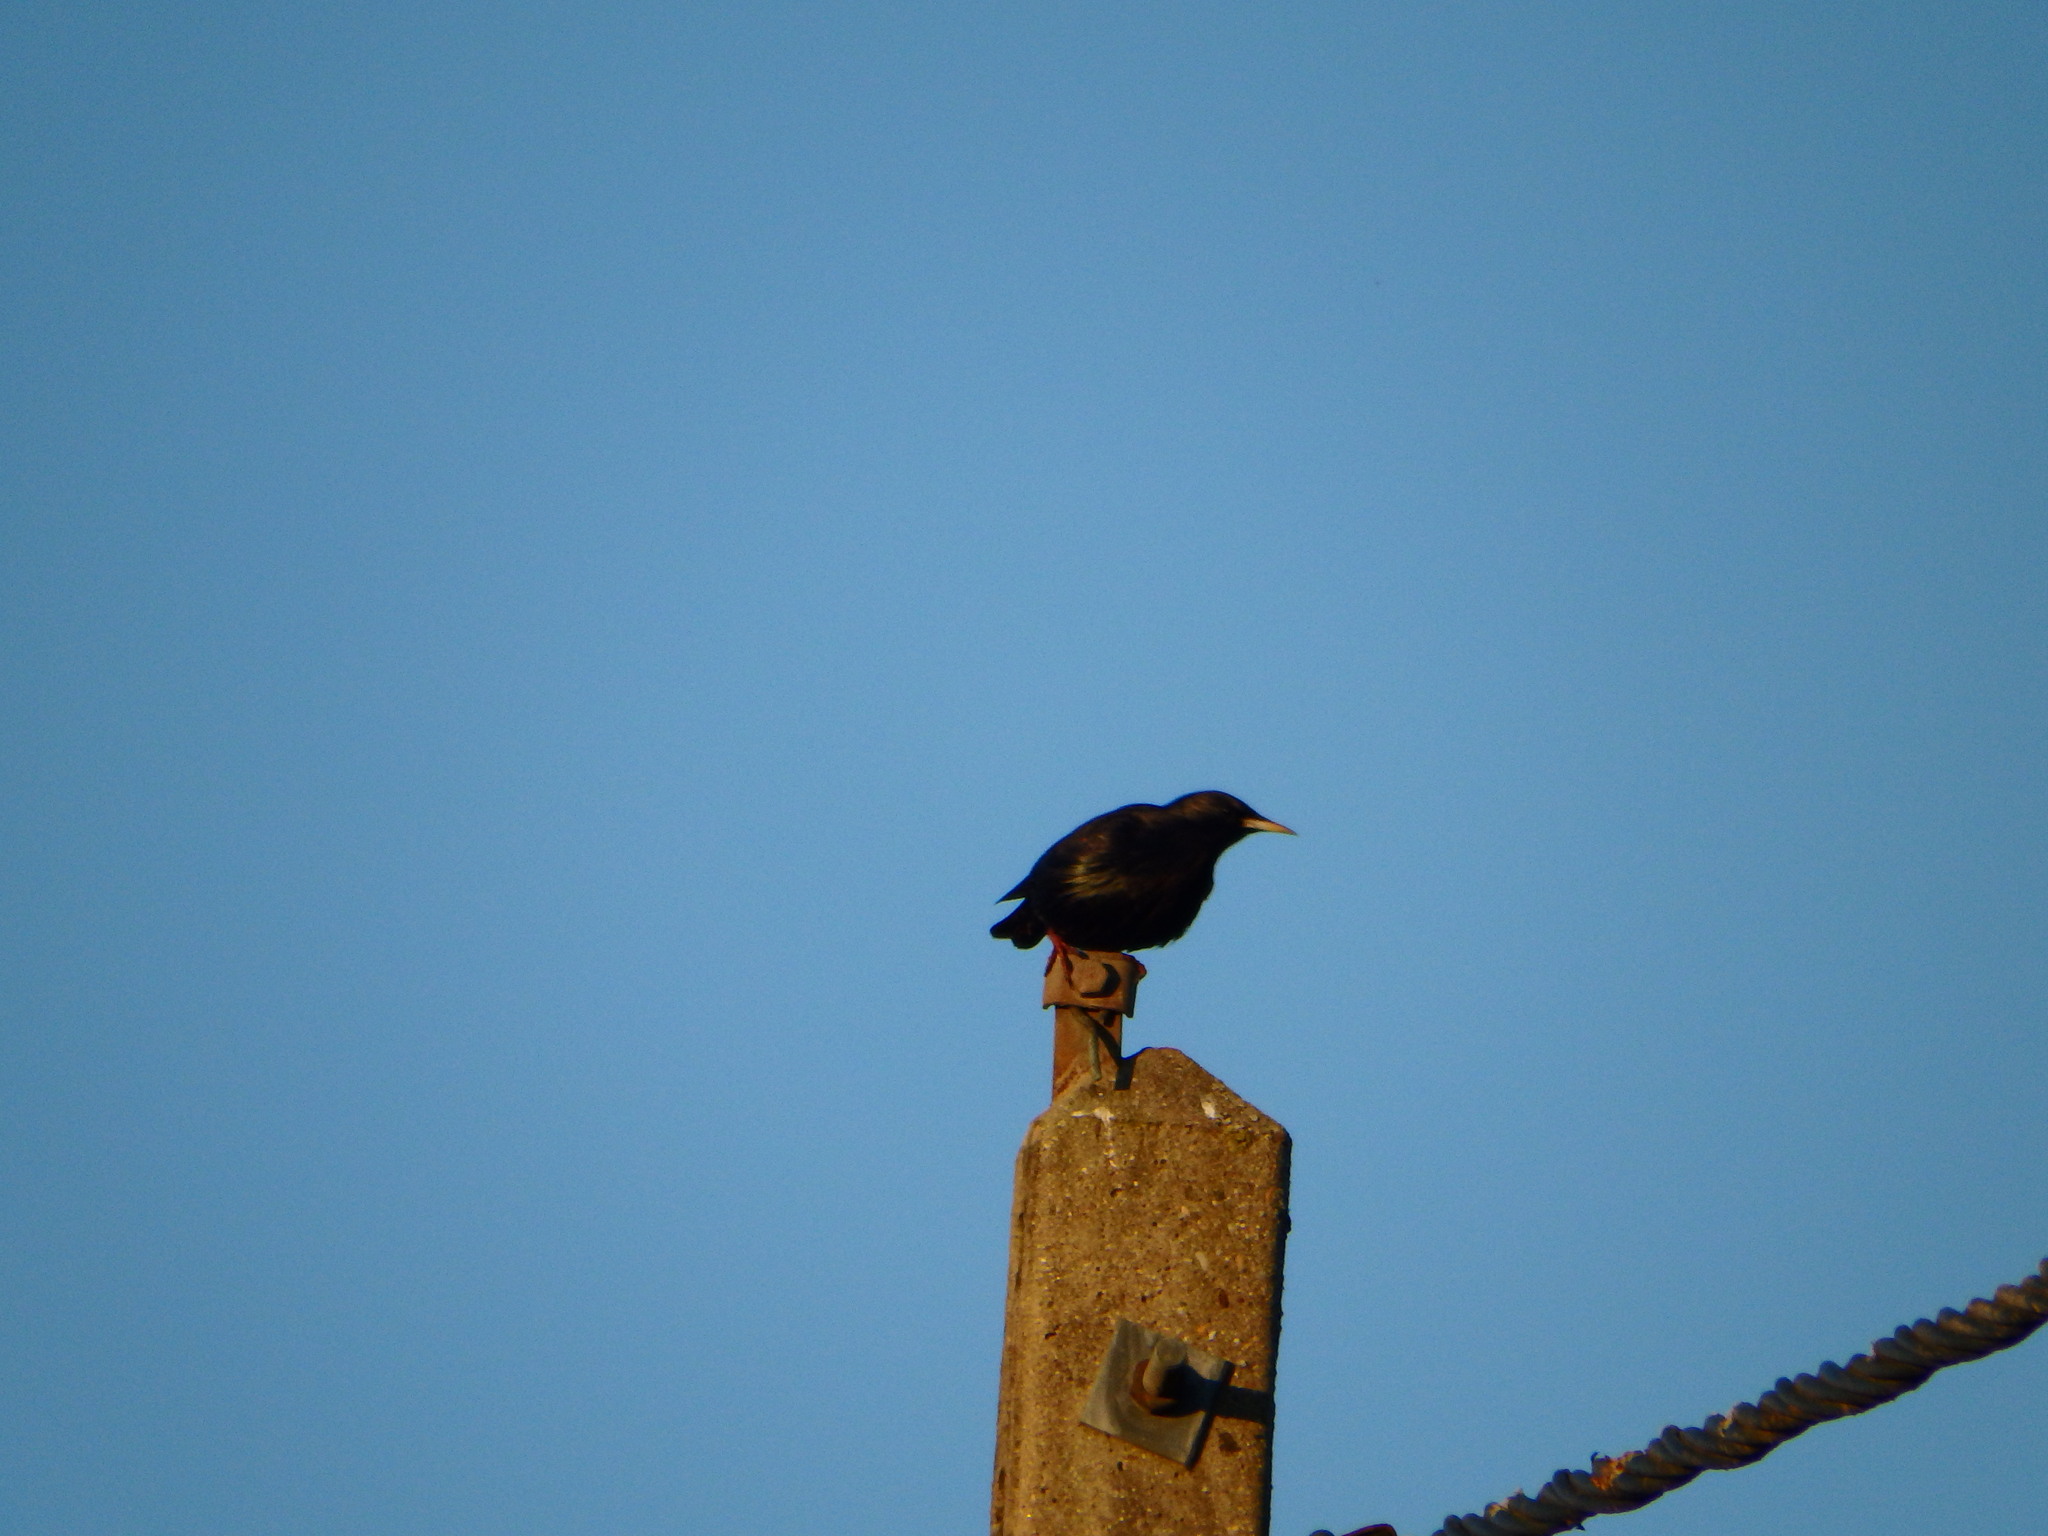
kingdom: Animalia
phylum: Chordata
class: Aves
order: Passeriformes
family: Sturnidae
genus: Sturnus
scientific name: Sturnus unicolor
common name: Spotless starling
